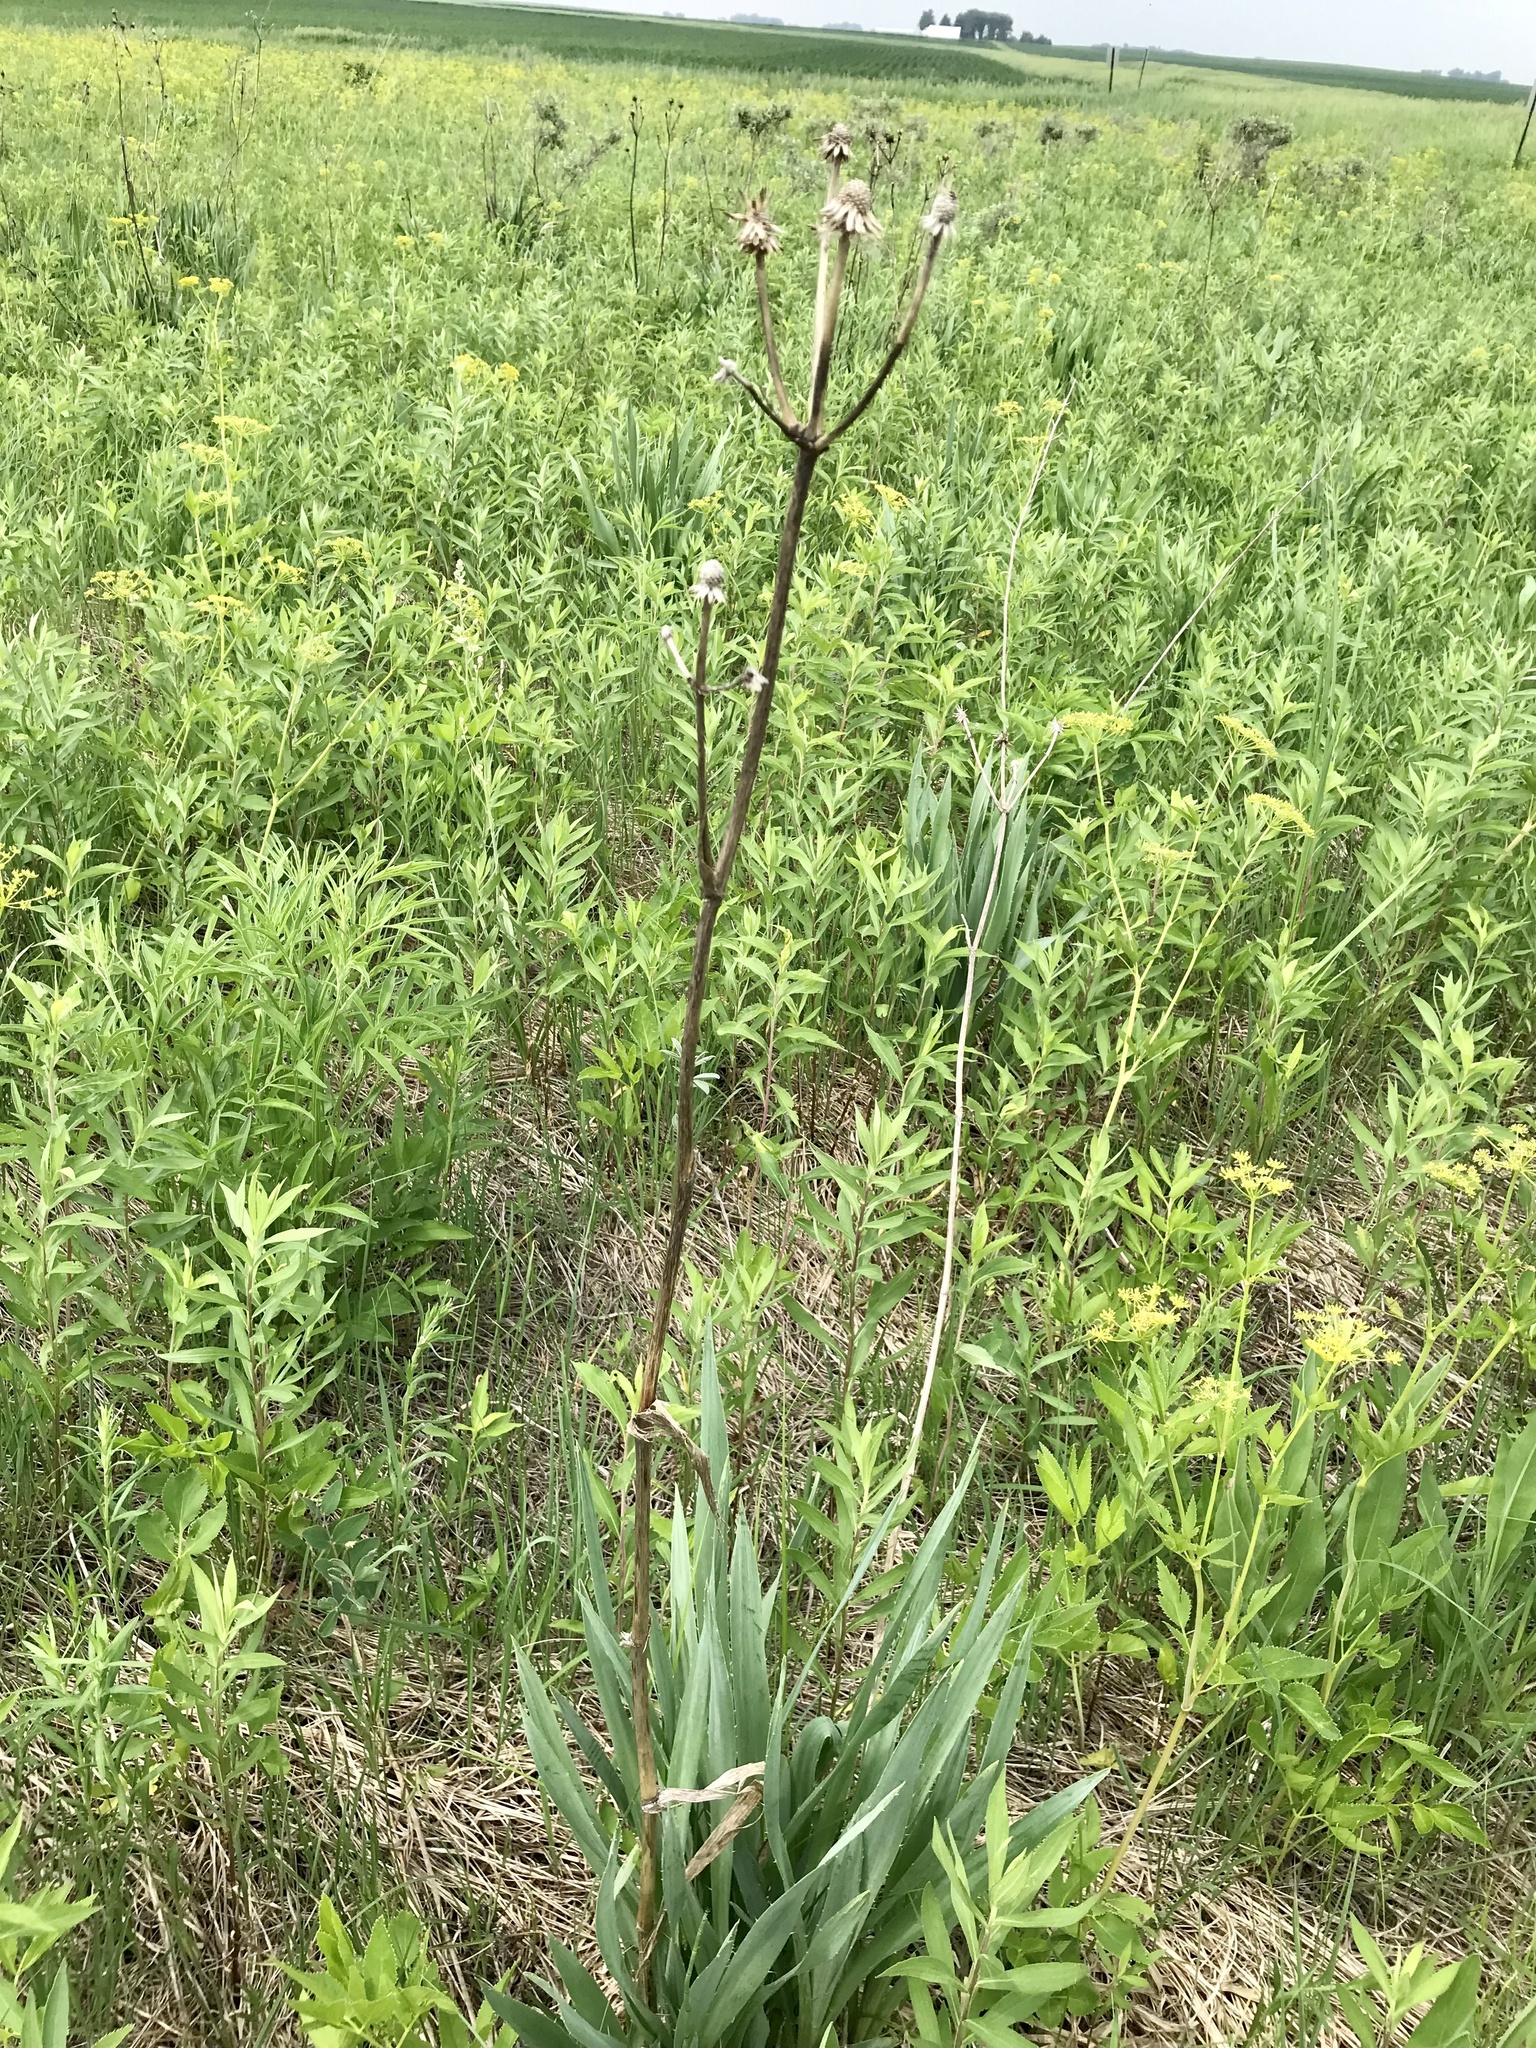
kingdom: Plantae
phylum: Tracheophyta
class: Magnoliopsida
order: Apiales
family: Apiaceae
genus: Eryngium
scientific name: Eryngium yuccifolium
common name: Button eryngo
